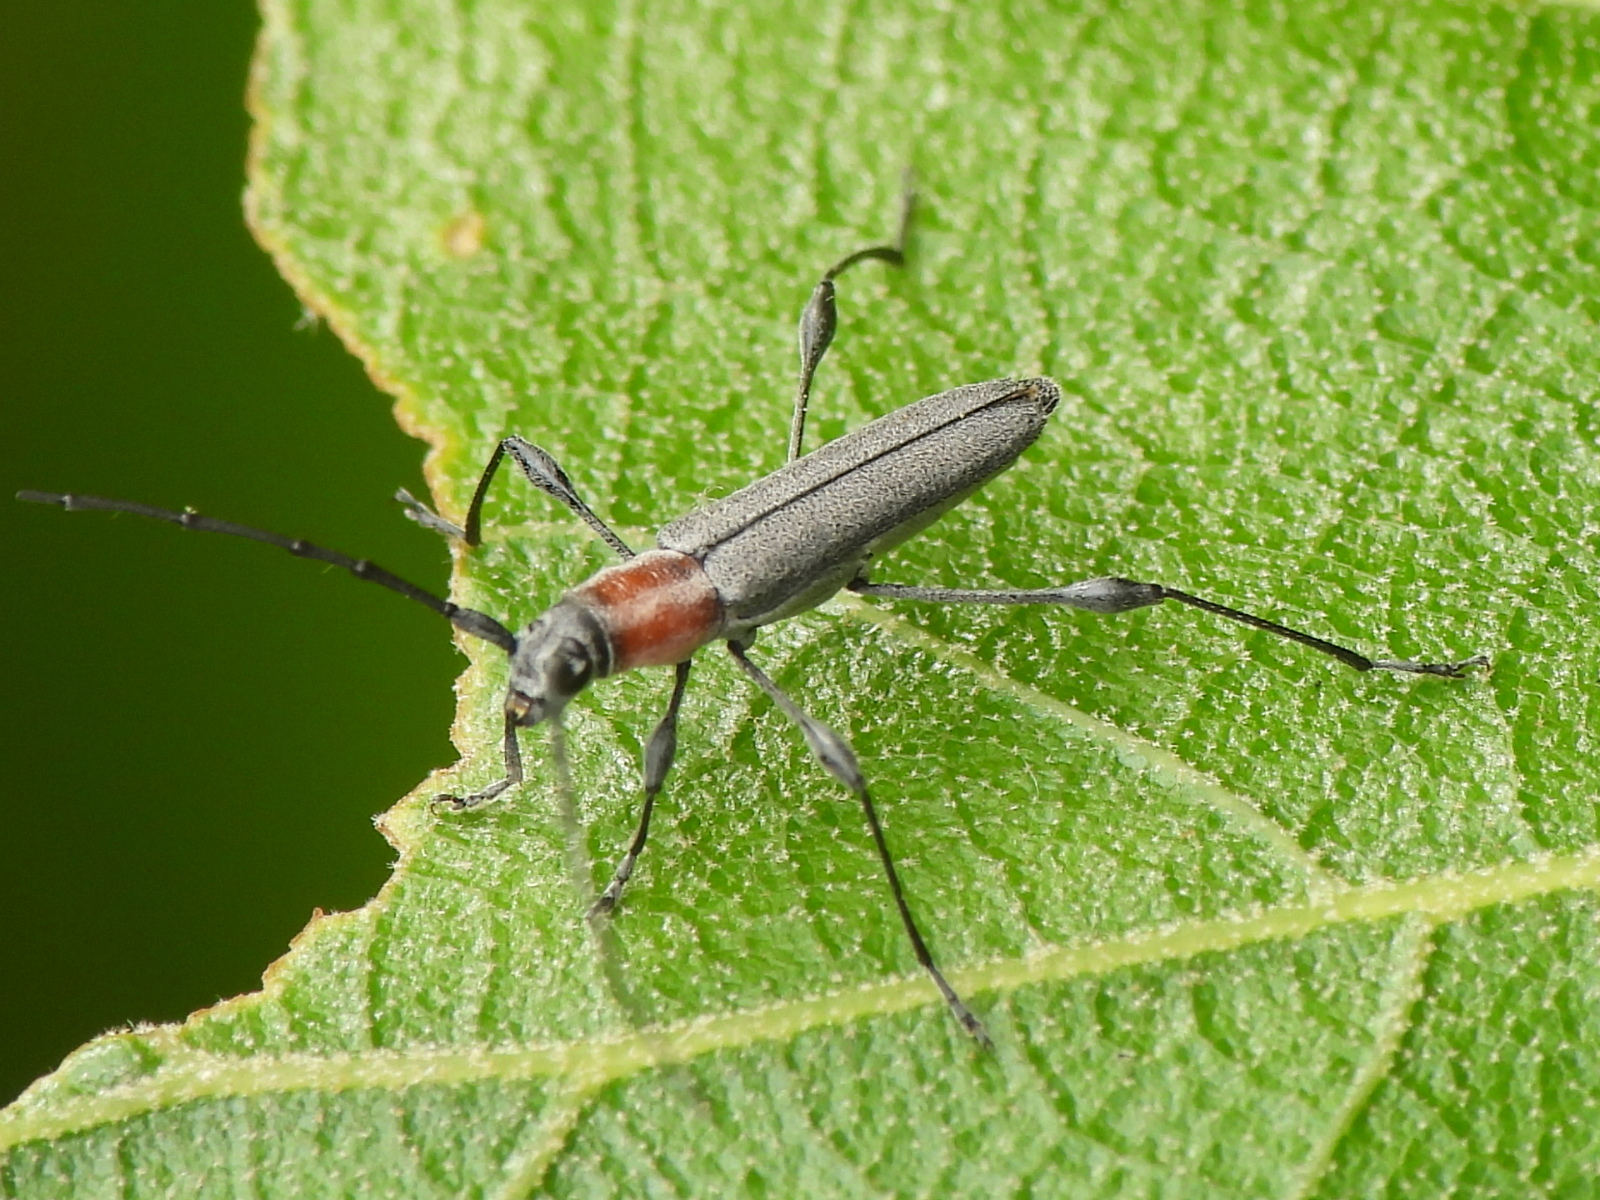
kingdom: Animalia
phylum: Arthropoda
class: Insecta
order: Coleoptera
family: Cerambycidae
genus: Rhopalophora
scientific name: Rhopalophora longipes
